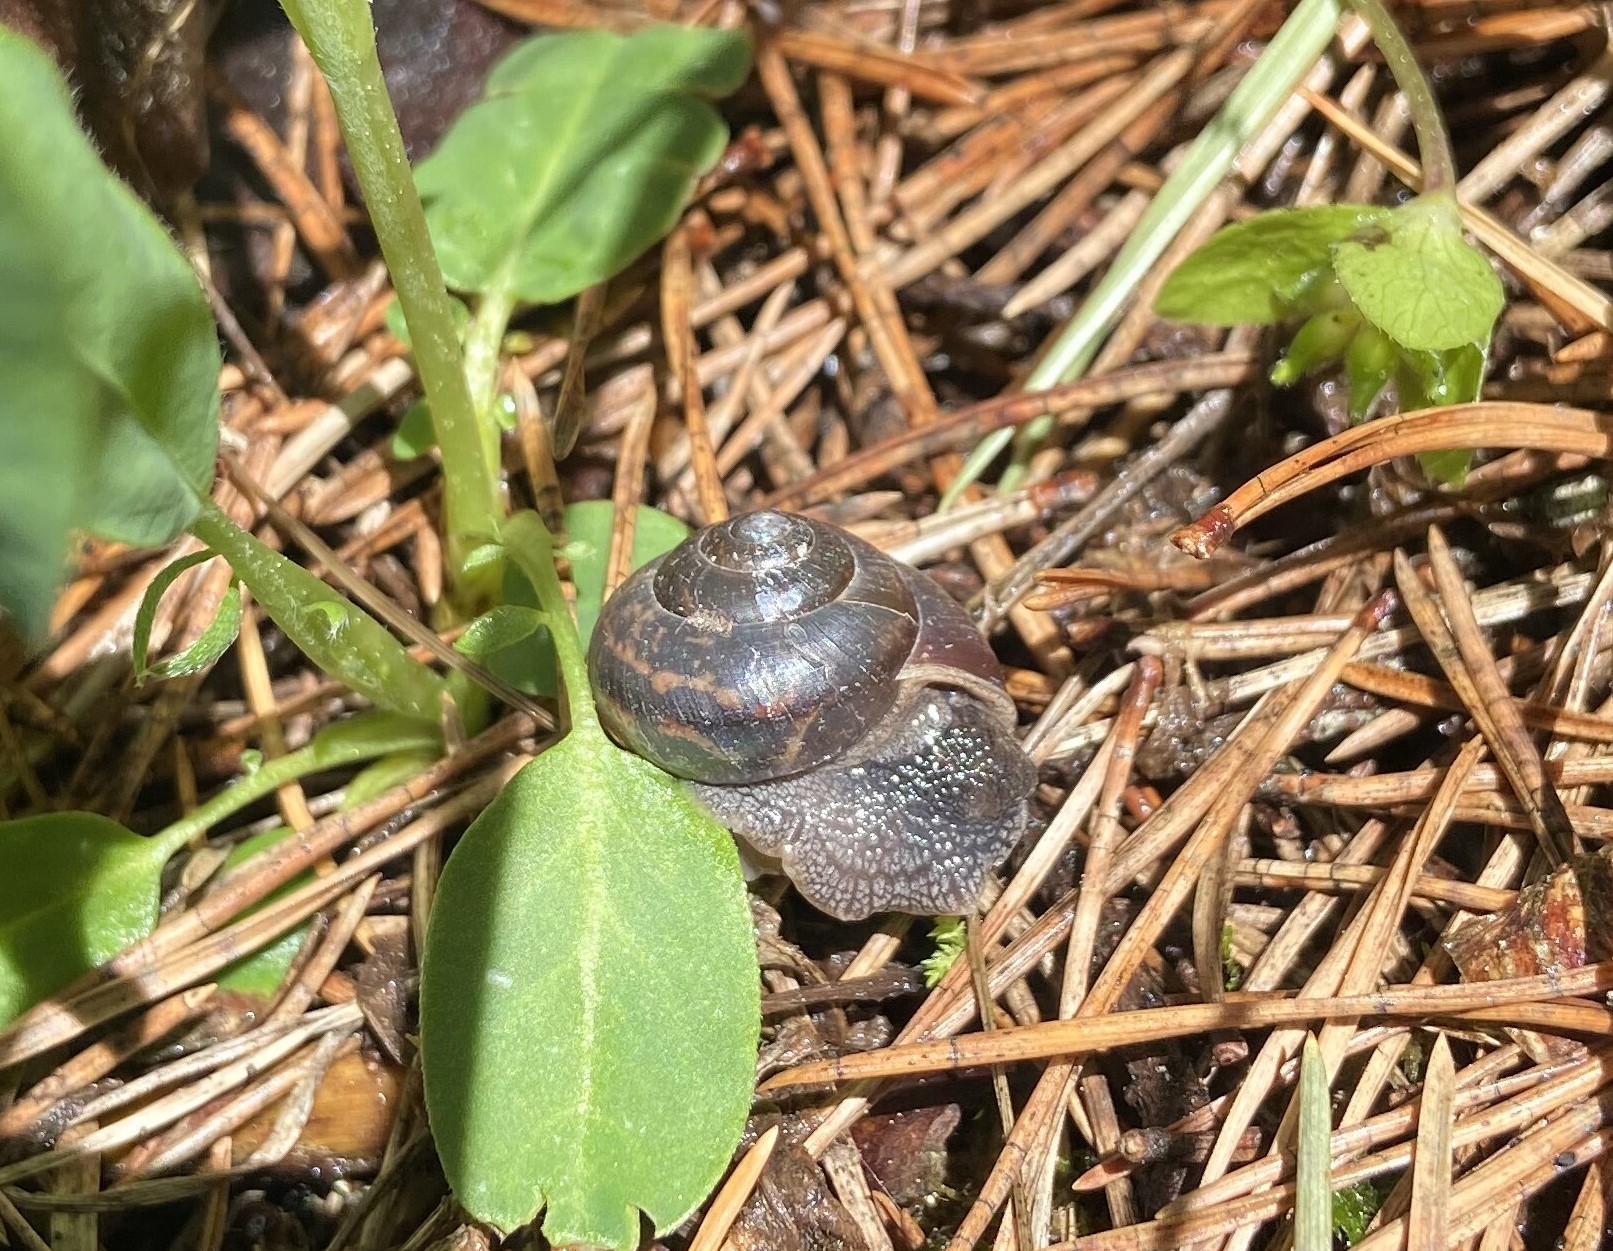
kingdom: Animalia
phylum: Mollusca
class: Gastropoda
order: Stylommatophora
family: Camaenidae
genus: Fruticicola
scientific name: Fruticicola fruticum
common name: Bush snail
